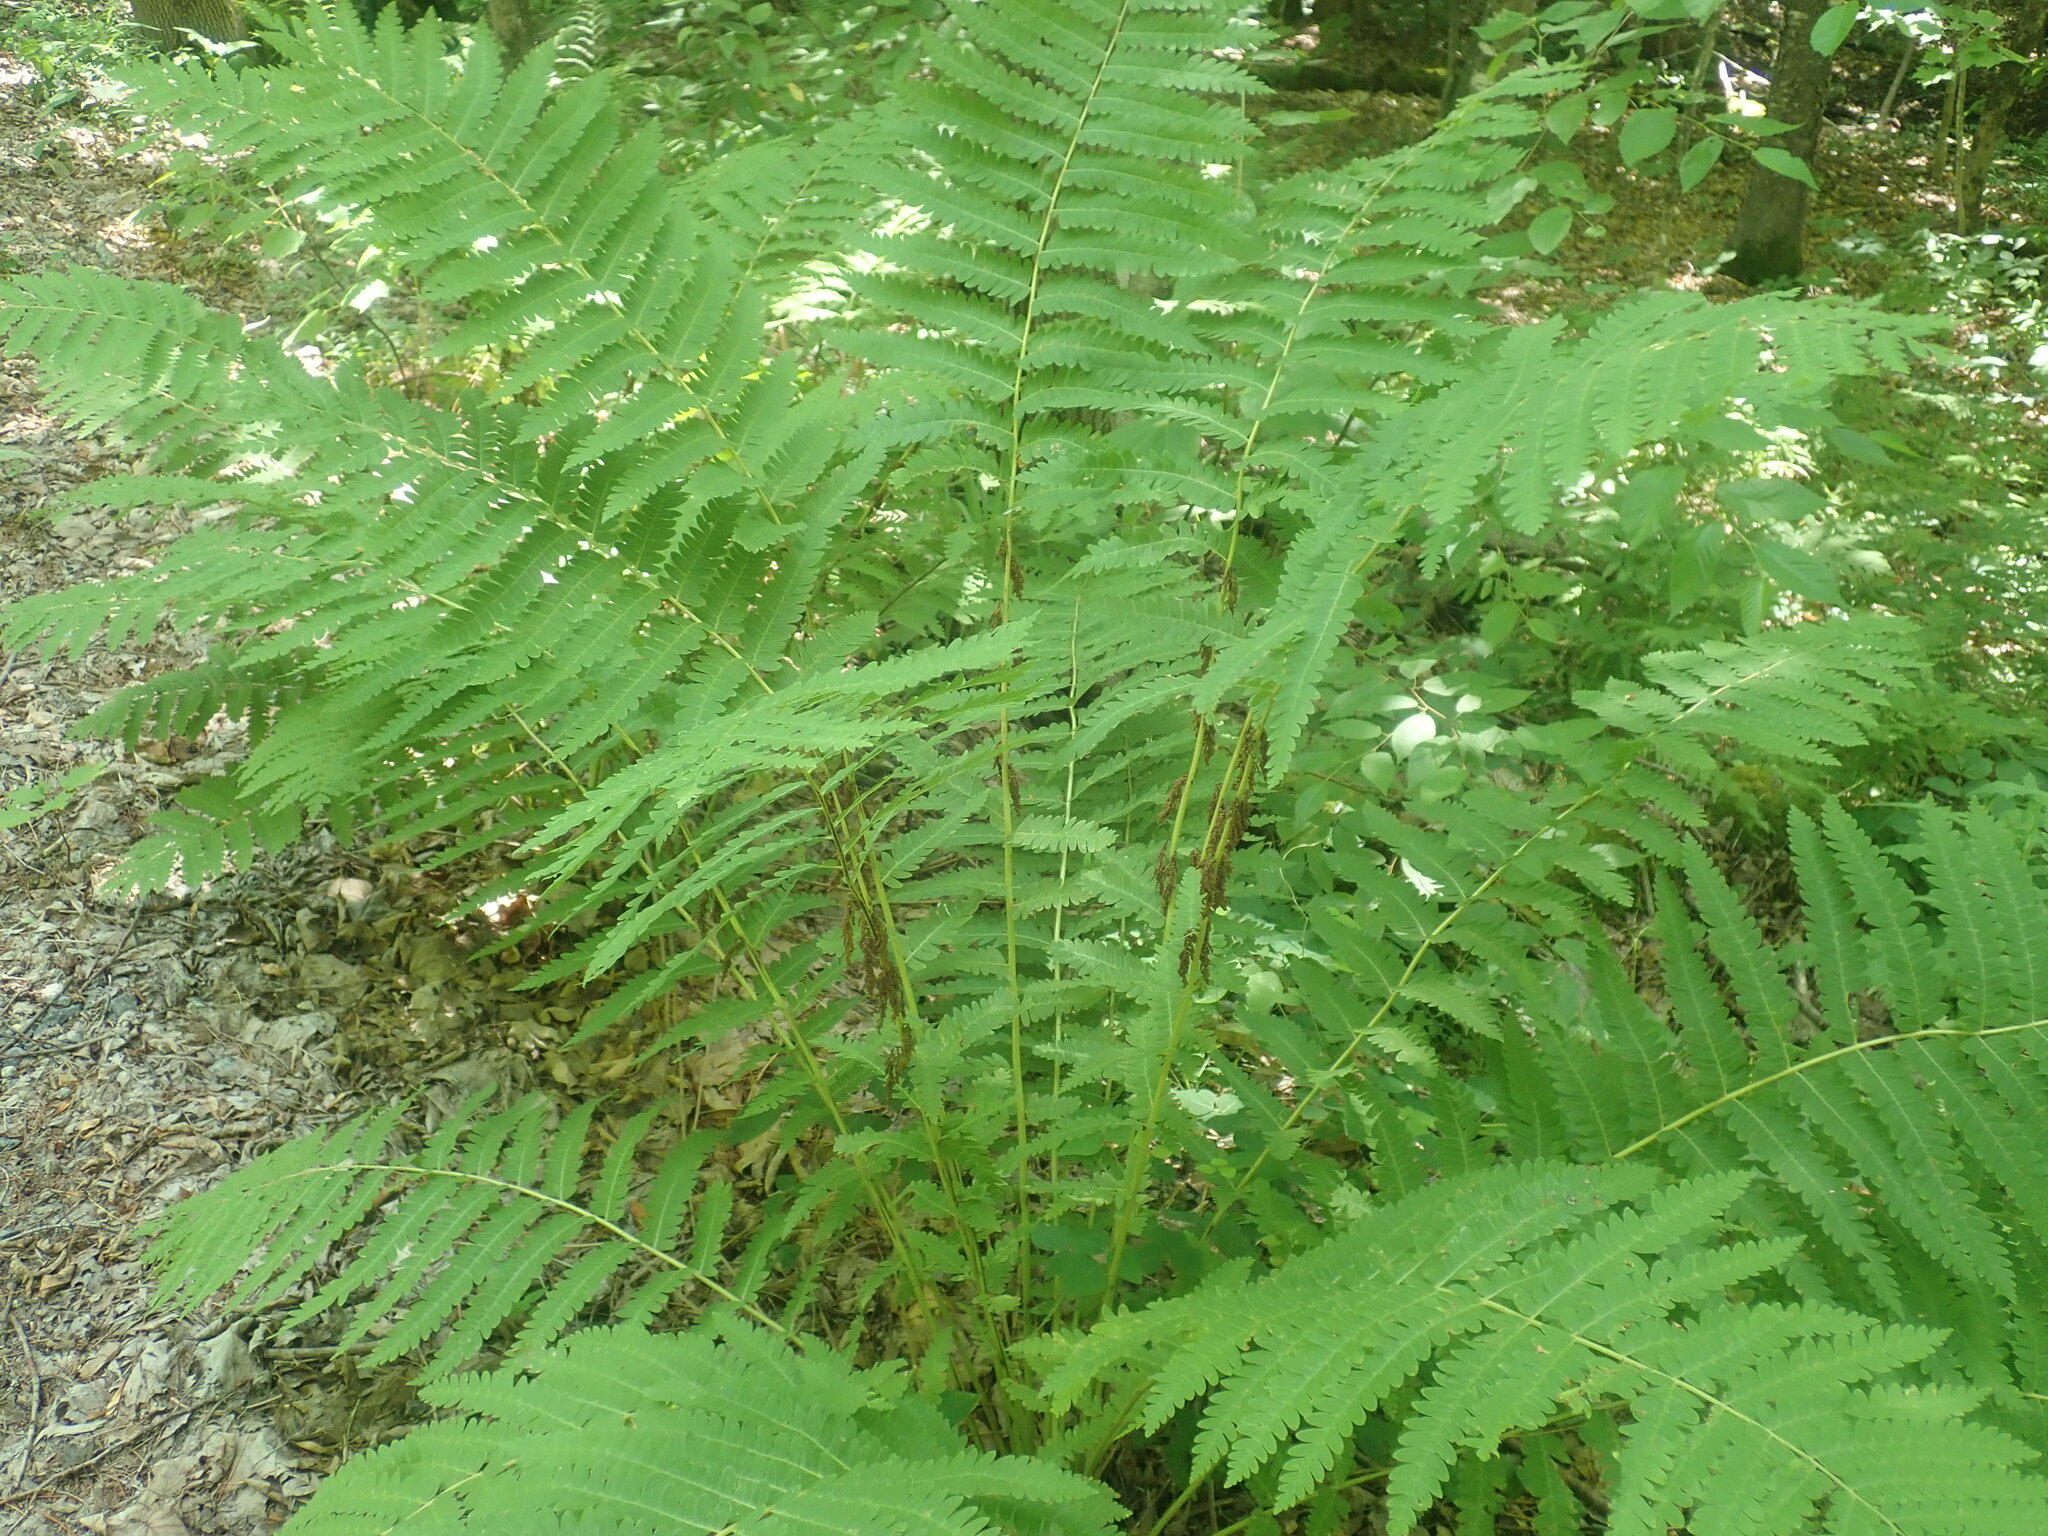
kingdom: Plantae
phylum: Tracheophyta
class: Polypodiopsida
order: Osmundales
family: Osmundaceae
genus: Claytosmunda
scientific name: Claytosmunda claytoniana
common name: Clayton's fern
